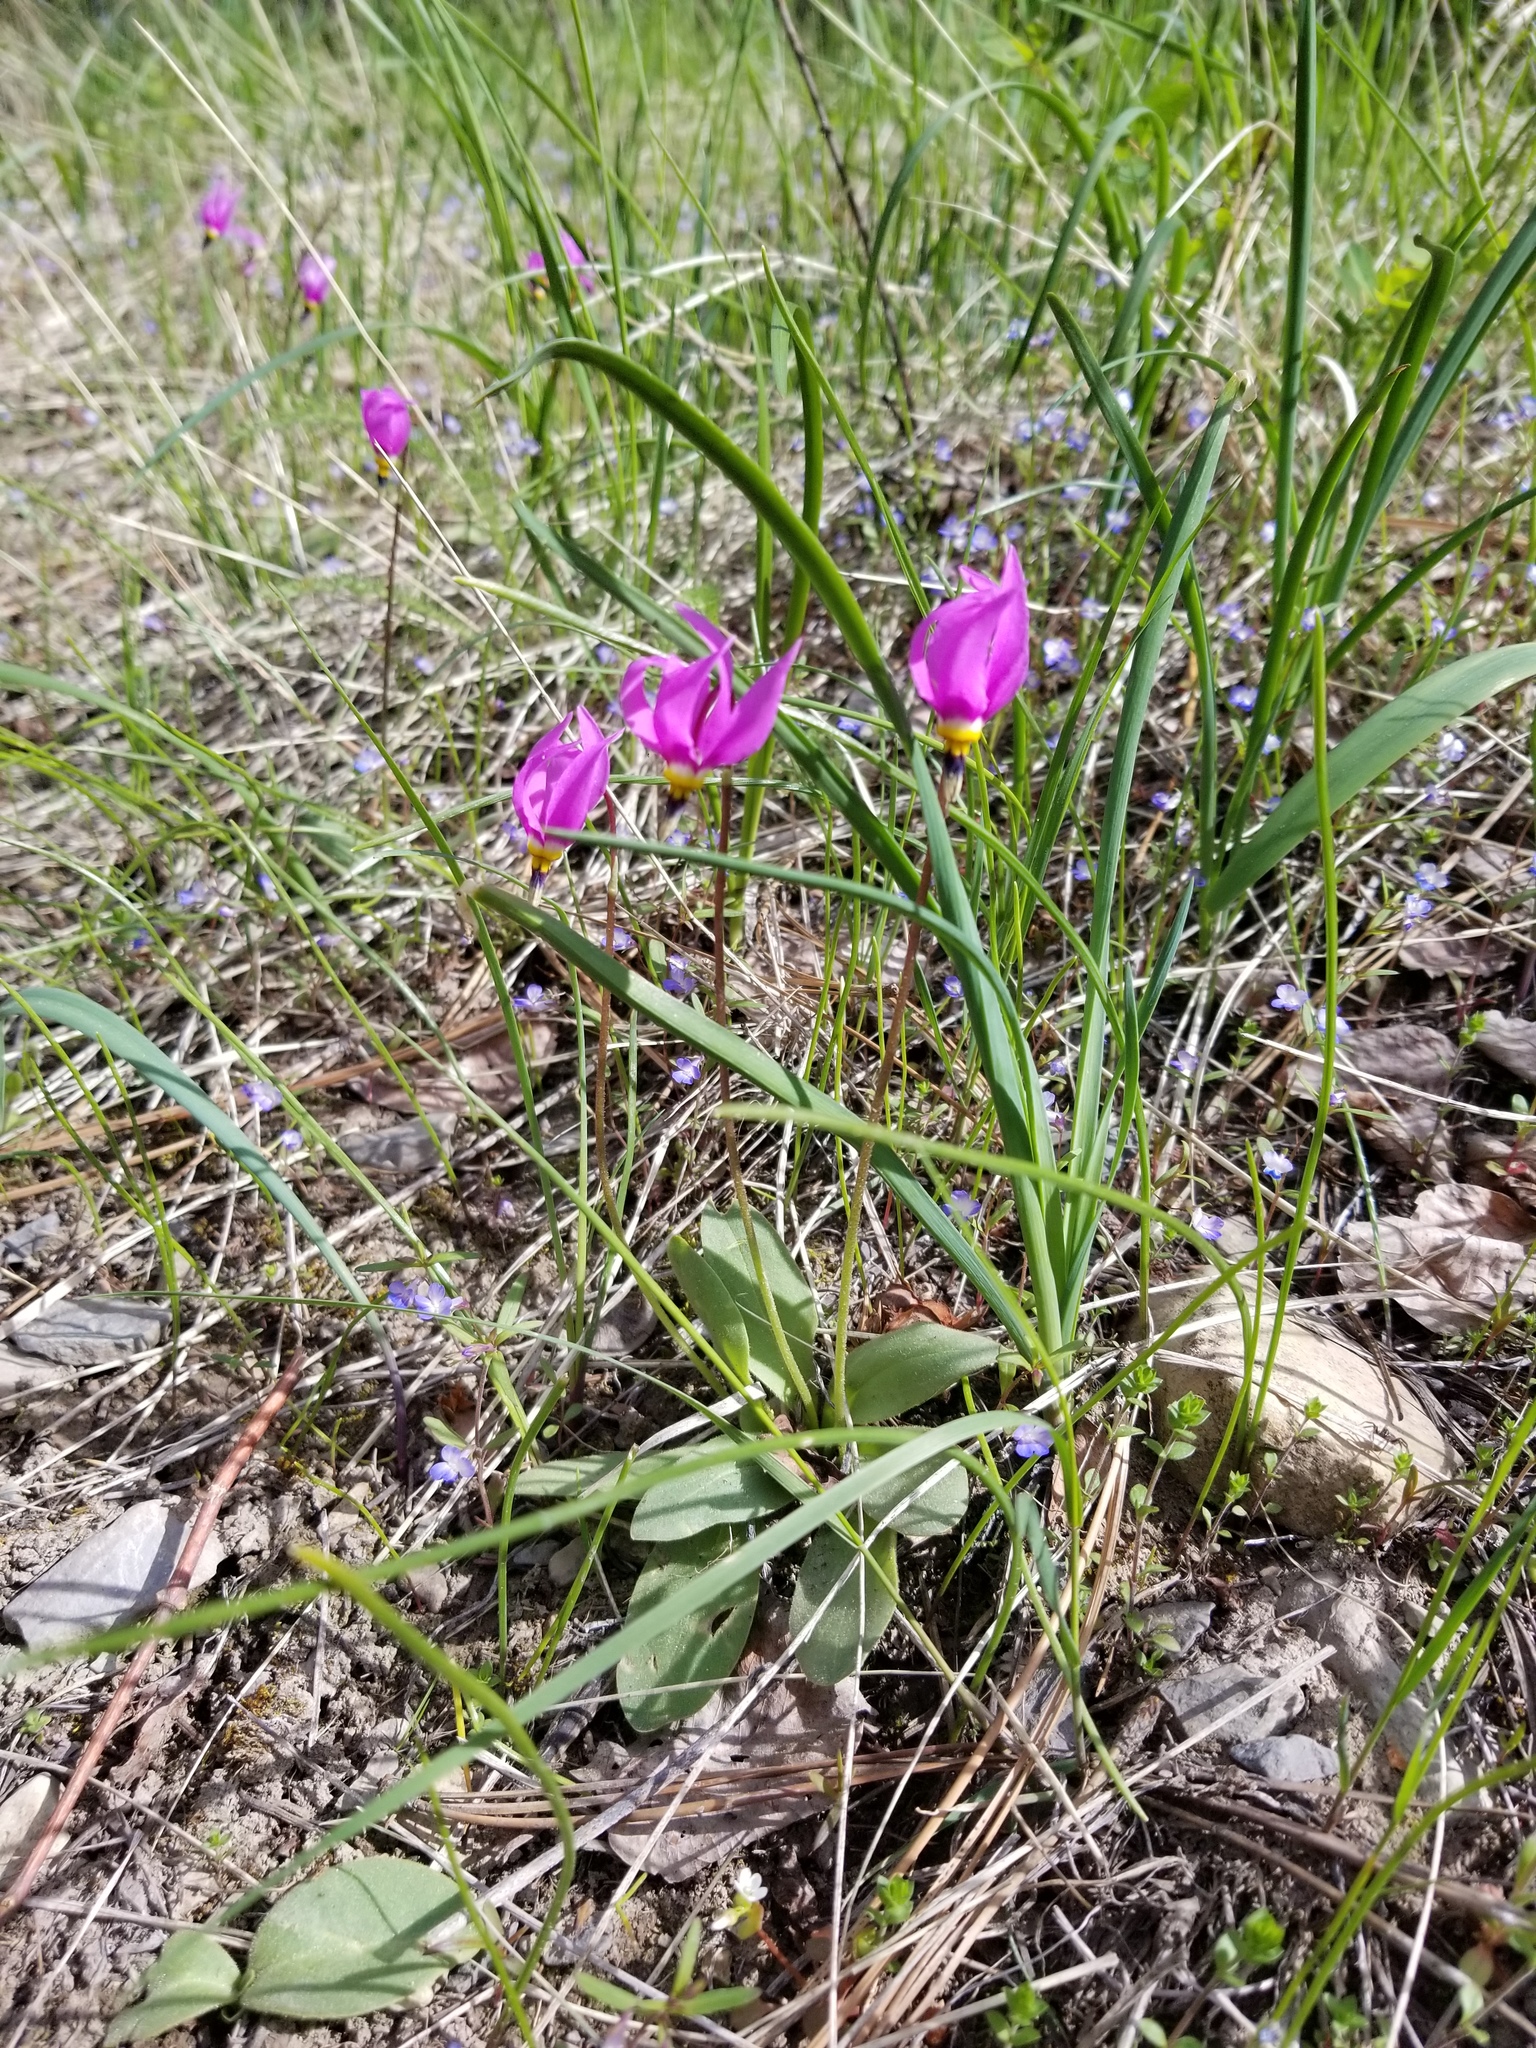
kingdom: Plantae
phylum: Tracheophyta
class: Magnoliopsida
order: Ericales
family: Primulaceae
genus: Dodecatheon
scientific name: Dodecatheon pulchellum
